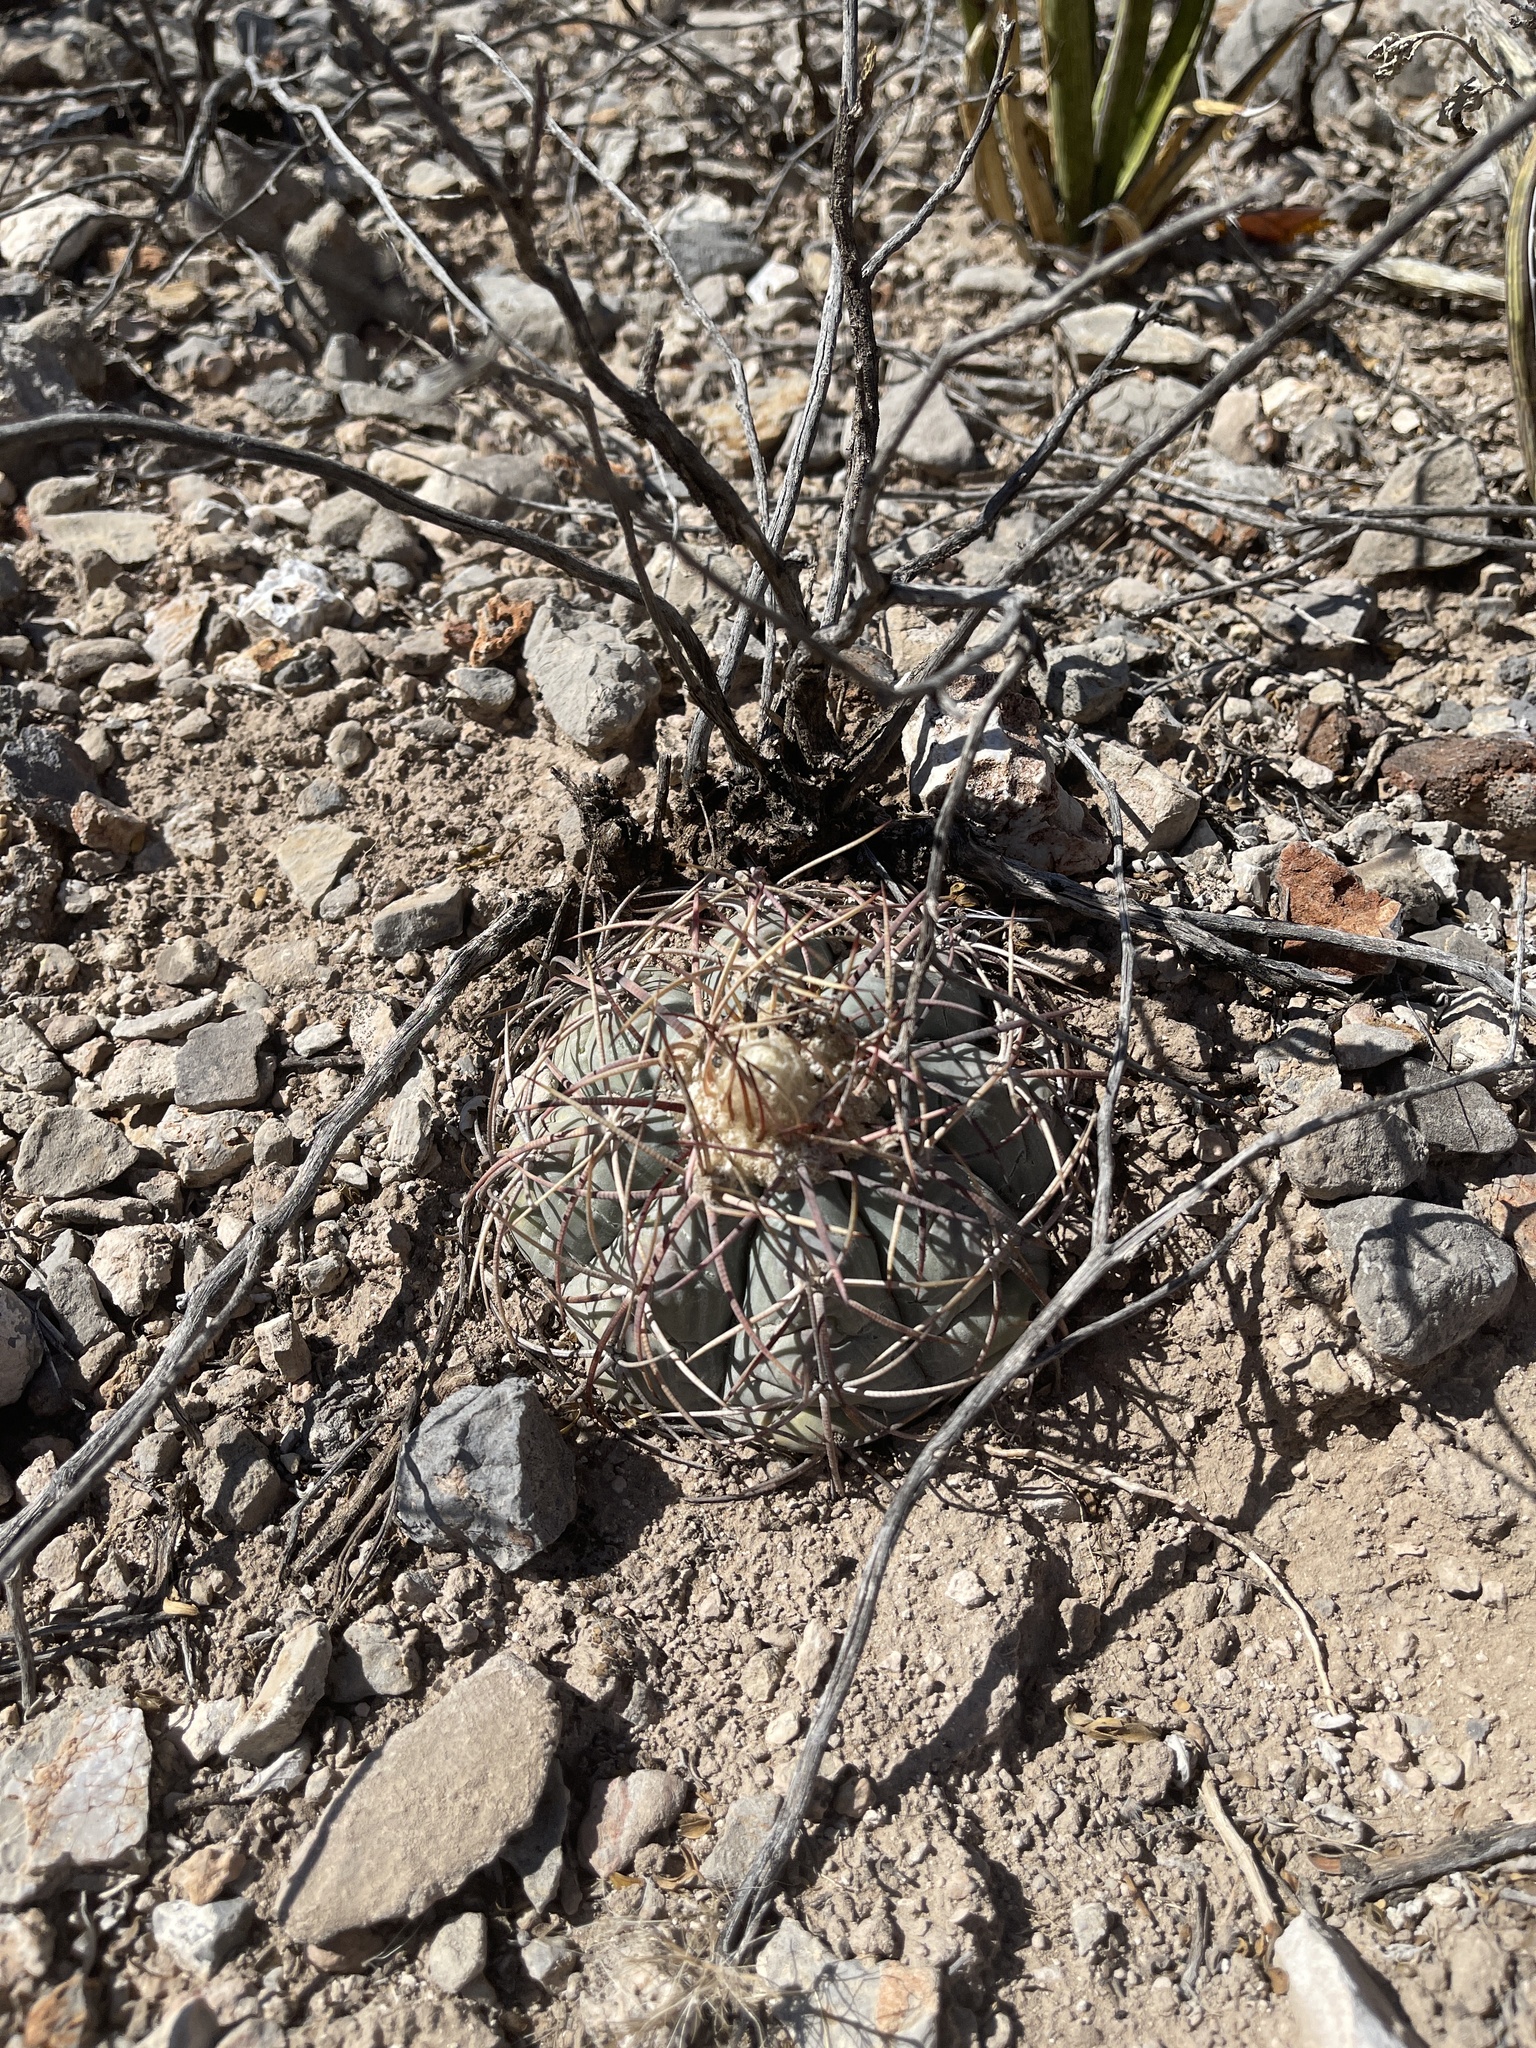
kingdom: Plantae
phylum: Tracheophyta
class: Magnoliopsida
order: Caryophyllales
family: Cactaceae
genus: Echinocactus
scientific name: Echinocactus horizonthalonius
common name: Devilshead
